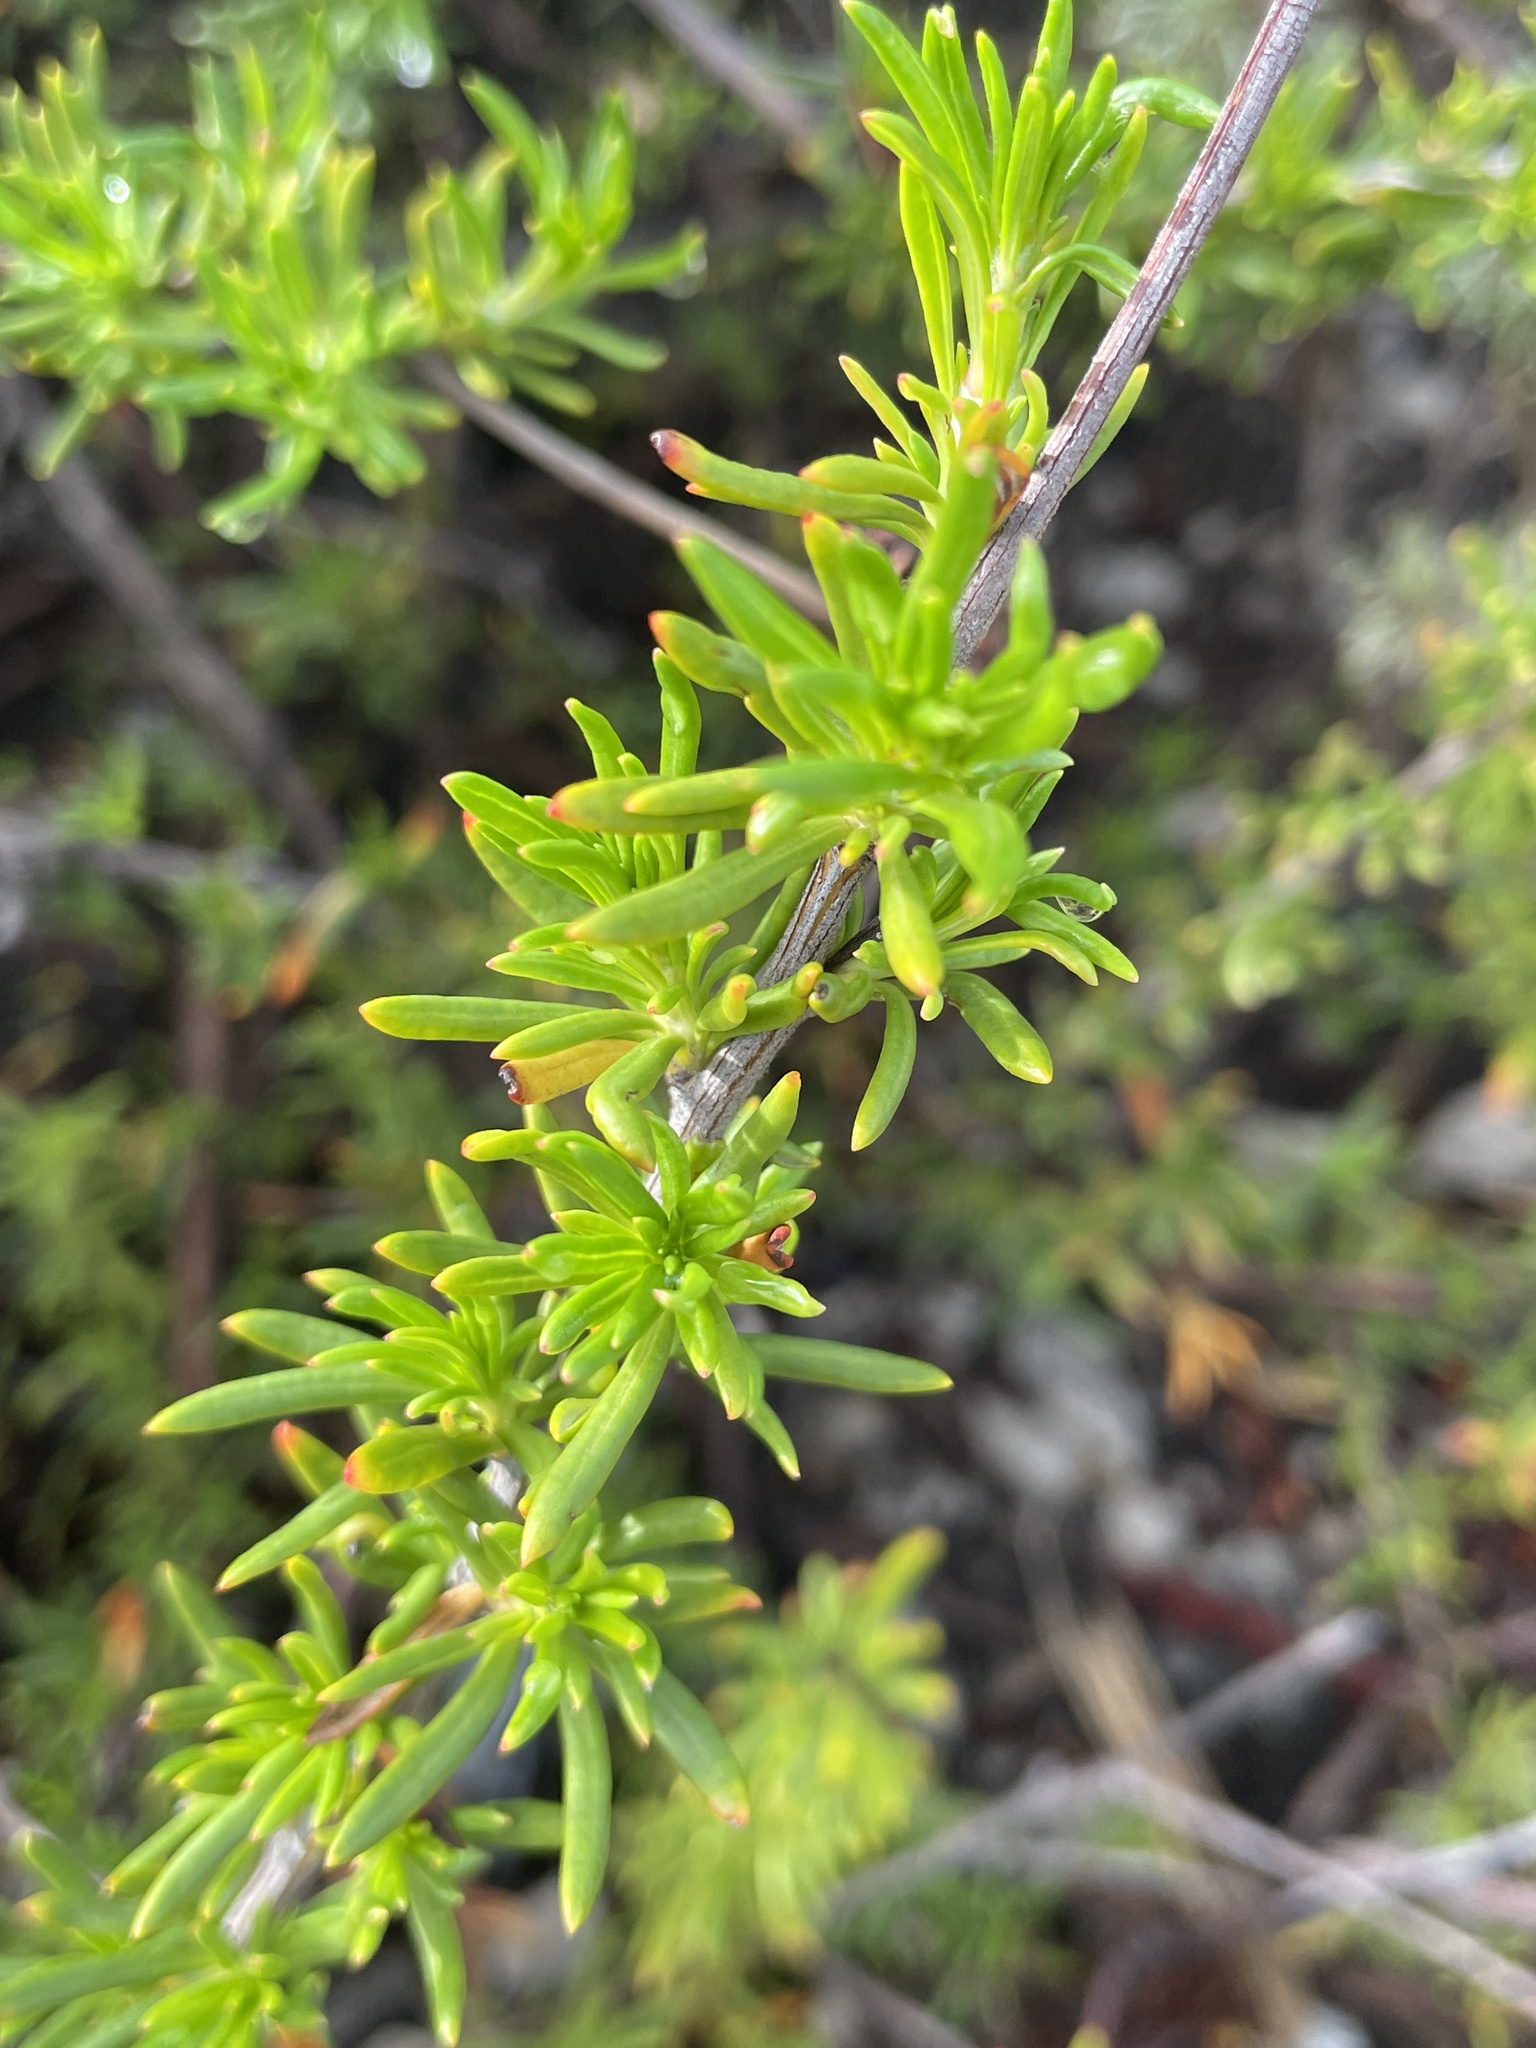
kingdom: Plantae
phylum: Tracheophyta
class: Magnoliopsida
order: Caryophyllales
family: Polygonaceae
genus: Eriogonum
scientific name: Eriogonum fasciculatum
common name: California wild buckwheat
